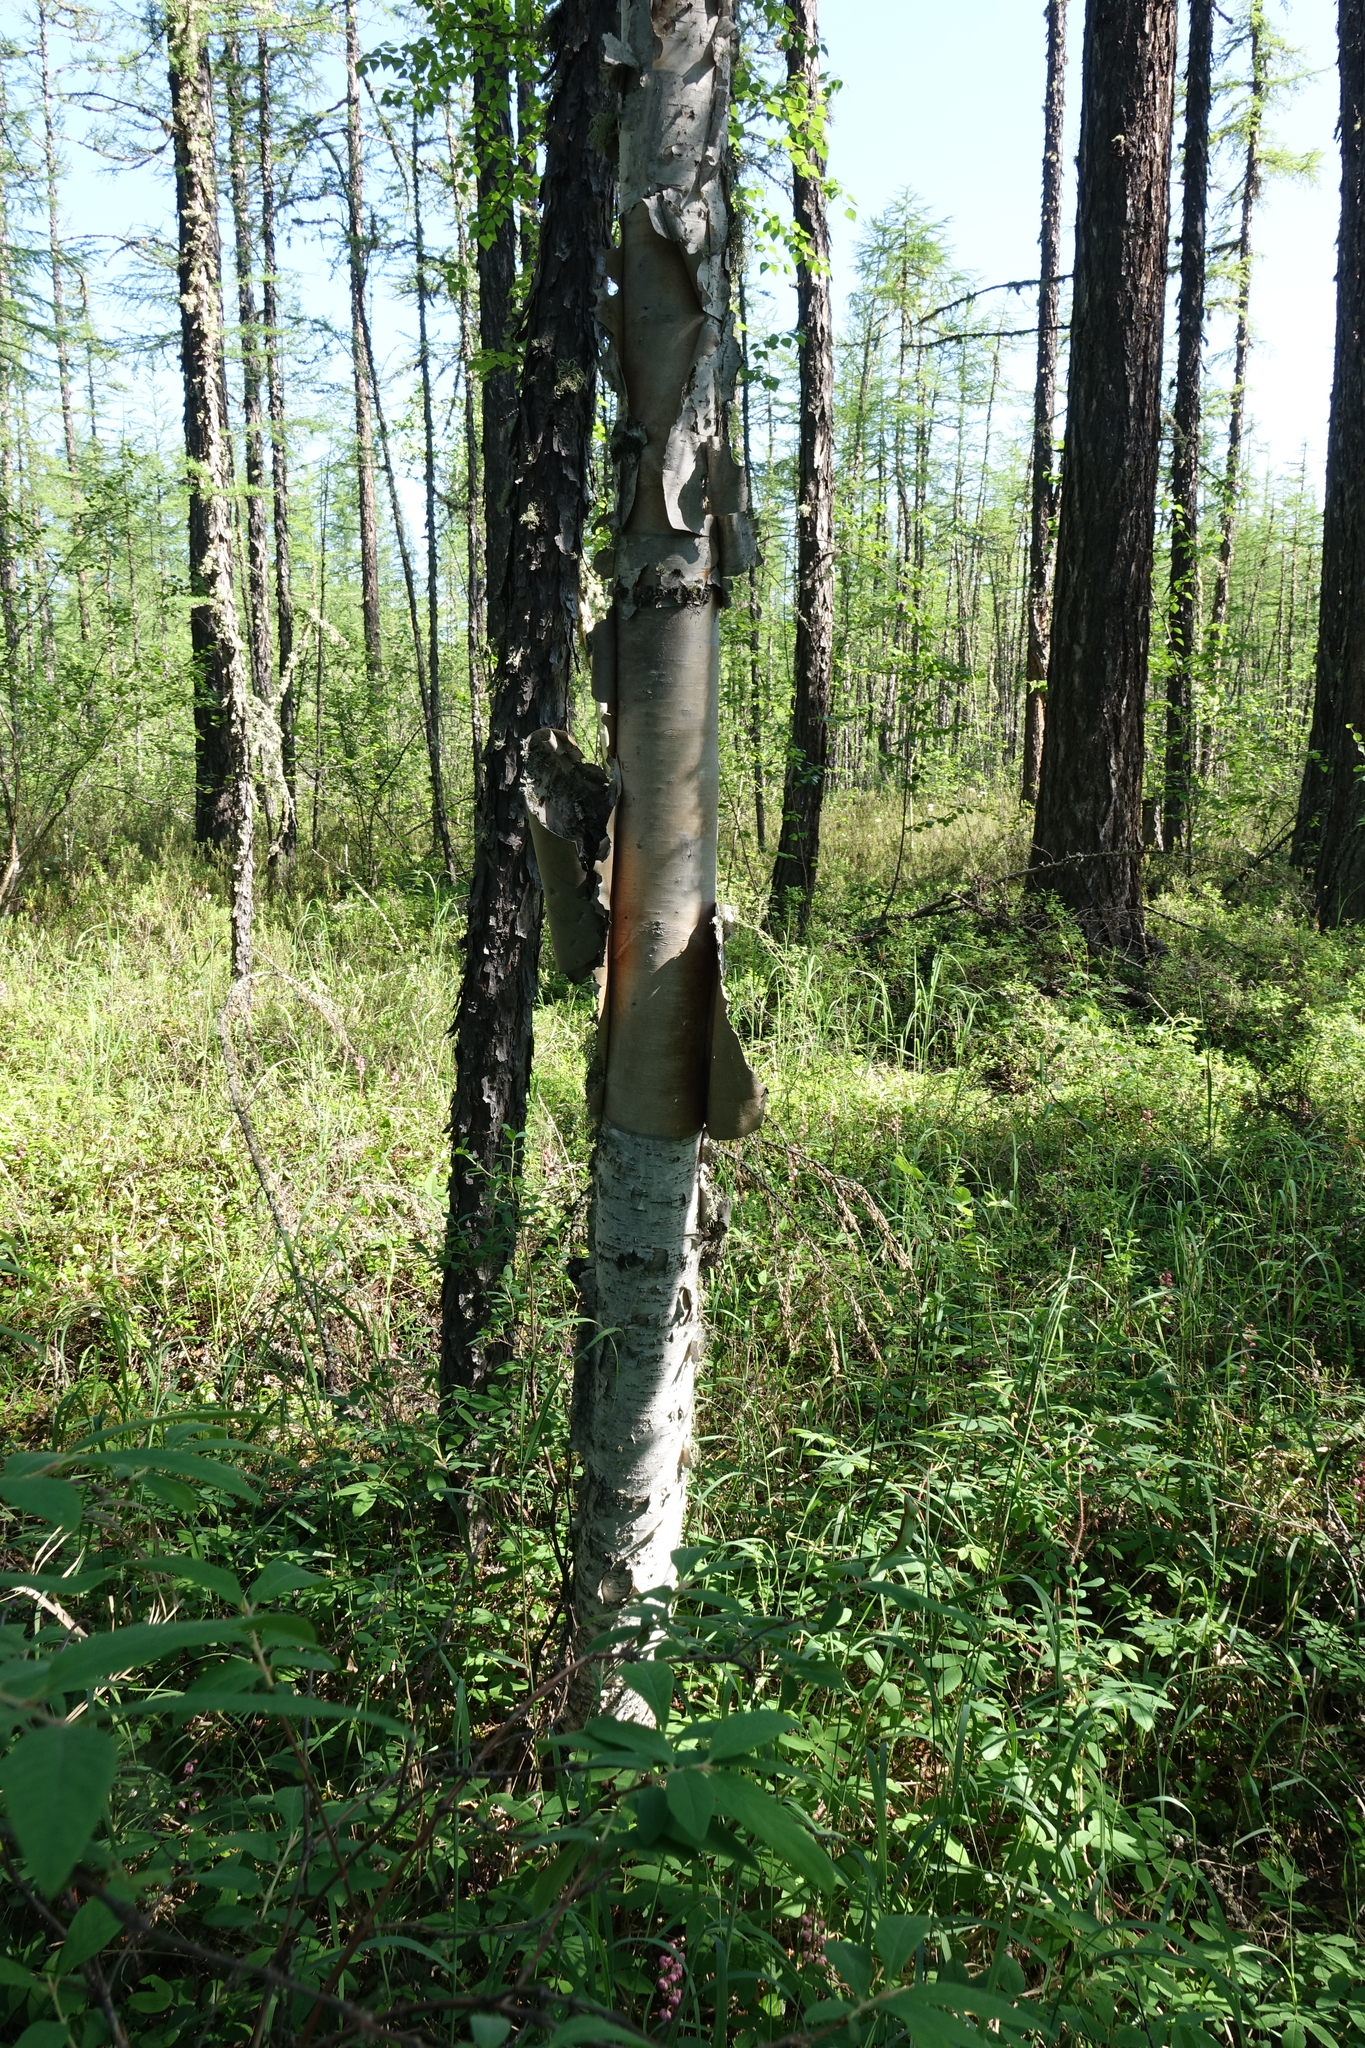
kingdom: Plantae
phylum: Tracheophyta
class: Magnoliopsida
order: Fagales
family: Betulaceae
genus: Betula
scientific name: Betula ermanii
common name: Erman's birch
